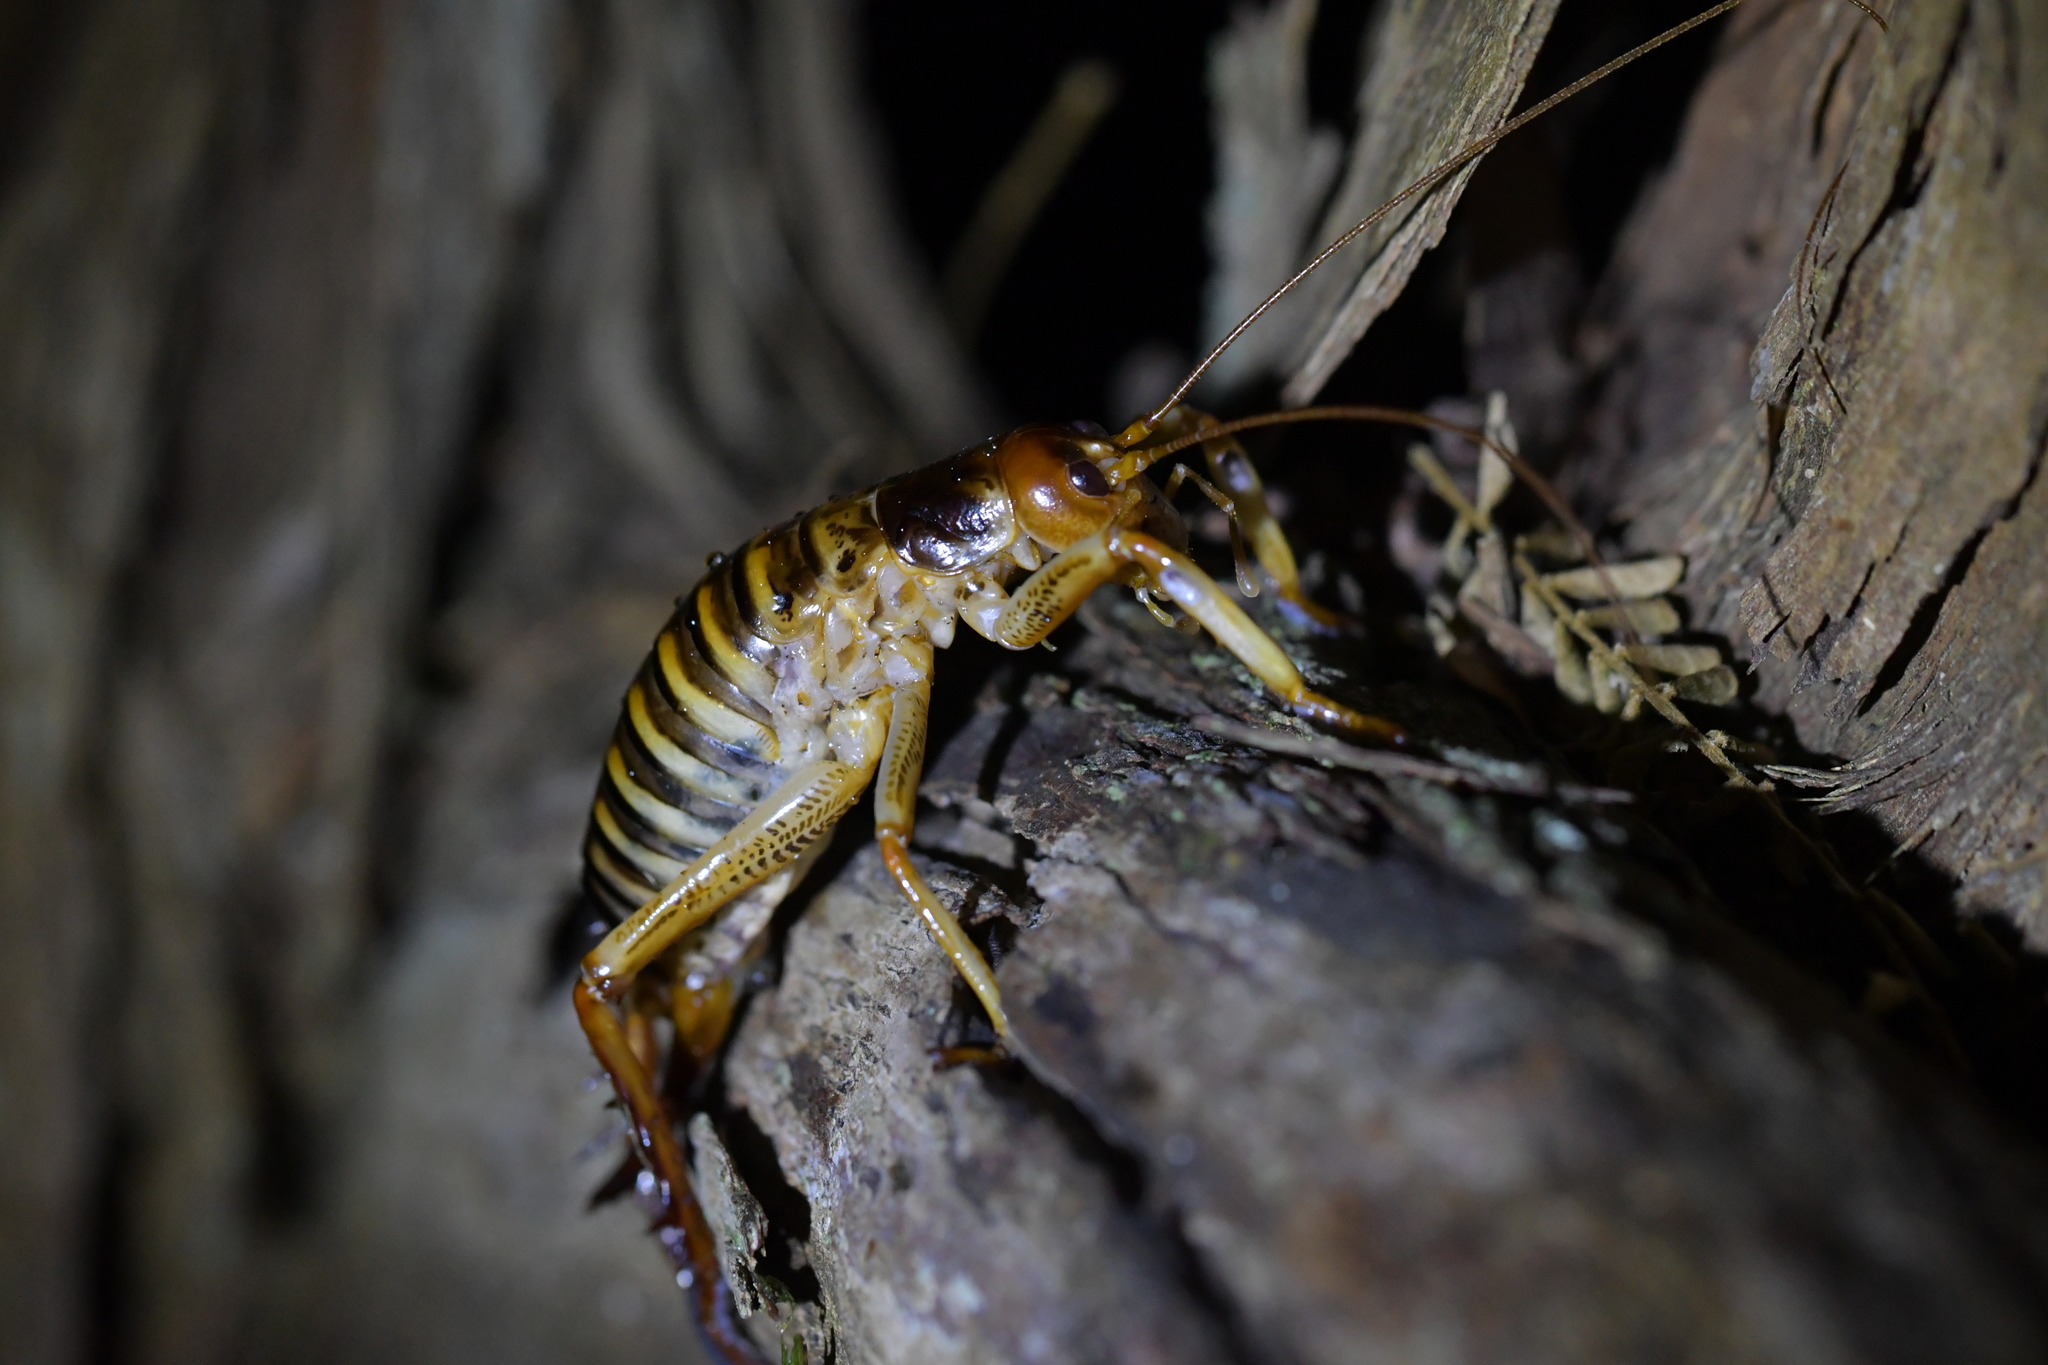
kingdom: Animalia
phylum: Arthropoda
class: Insecta
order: Orthoptera
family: Anostostomatidae
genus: Hemideina
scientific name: Hemideina crassidens
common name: Wellington tree weta
